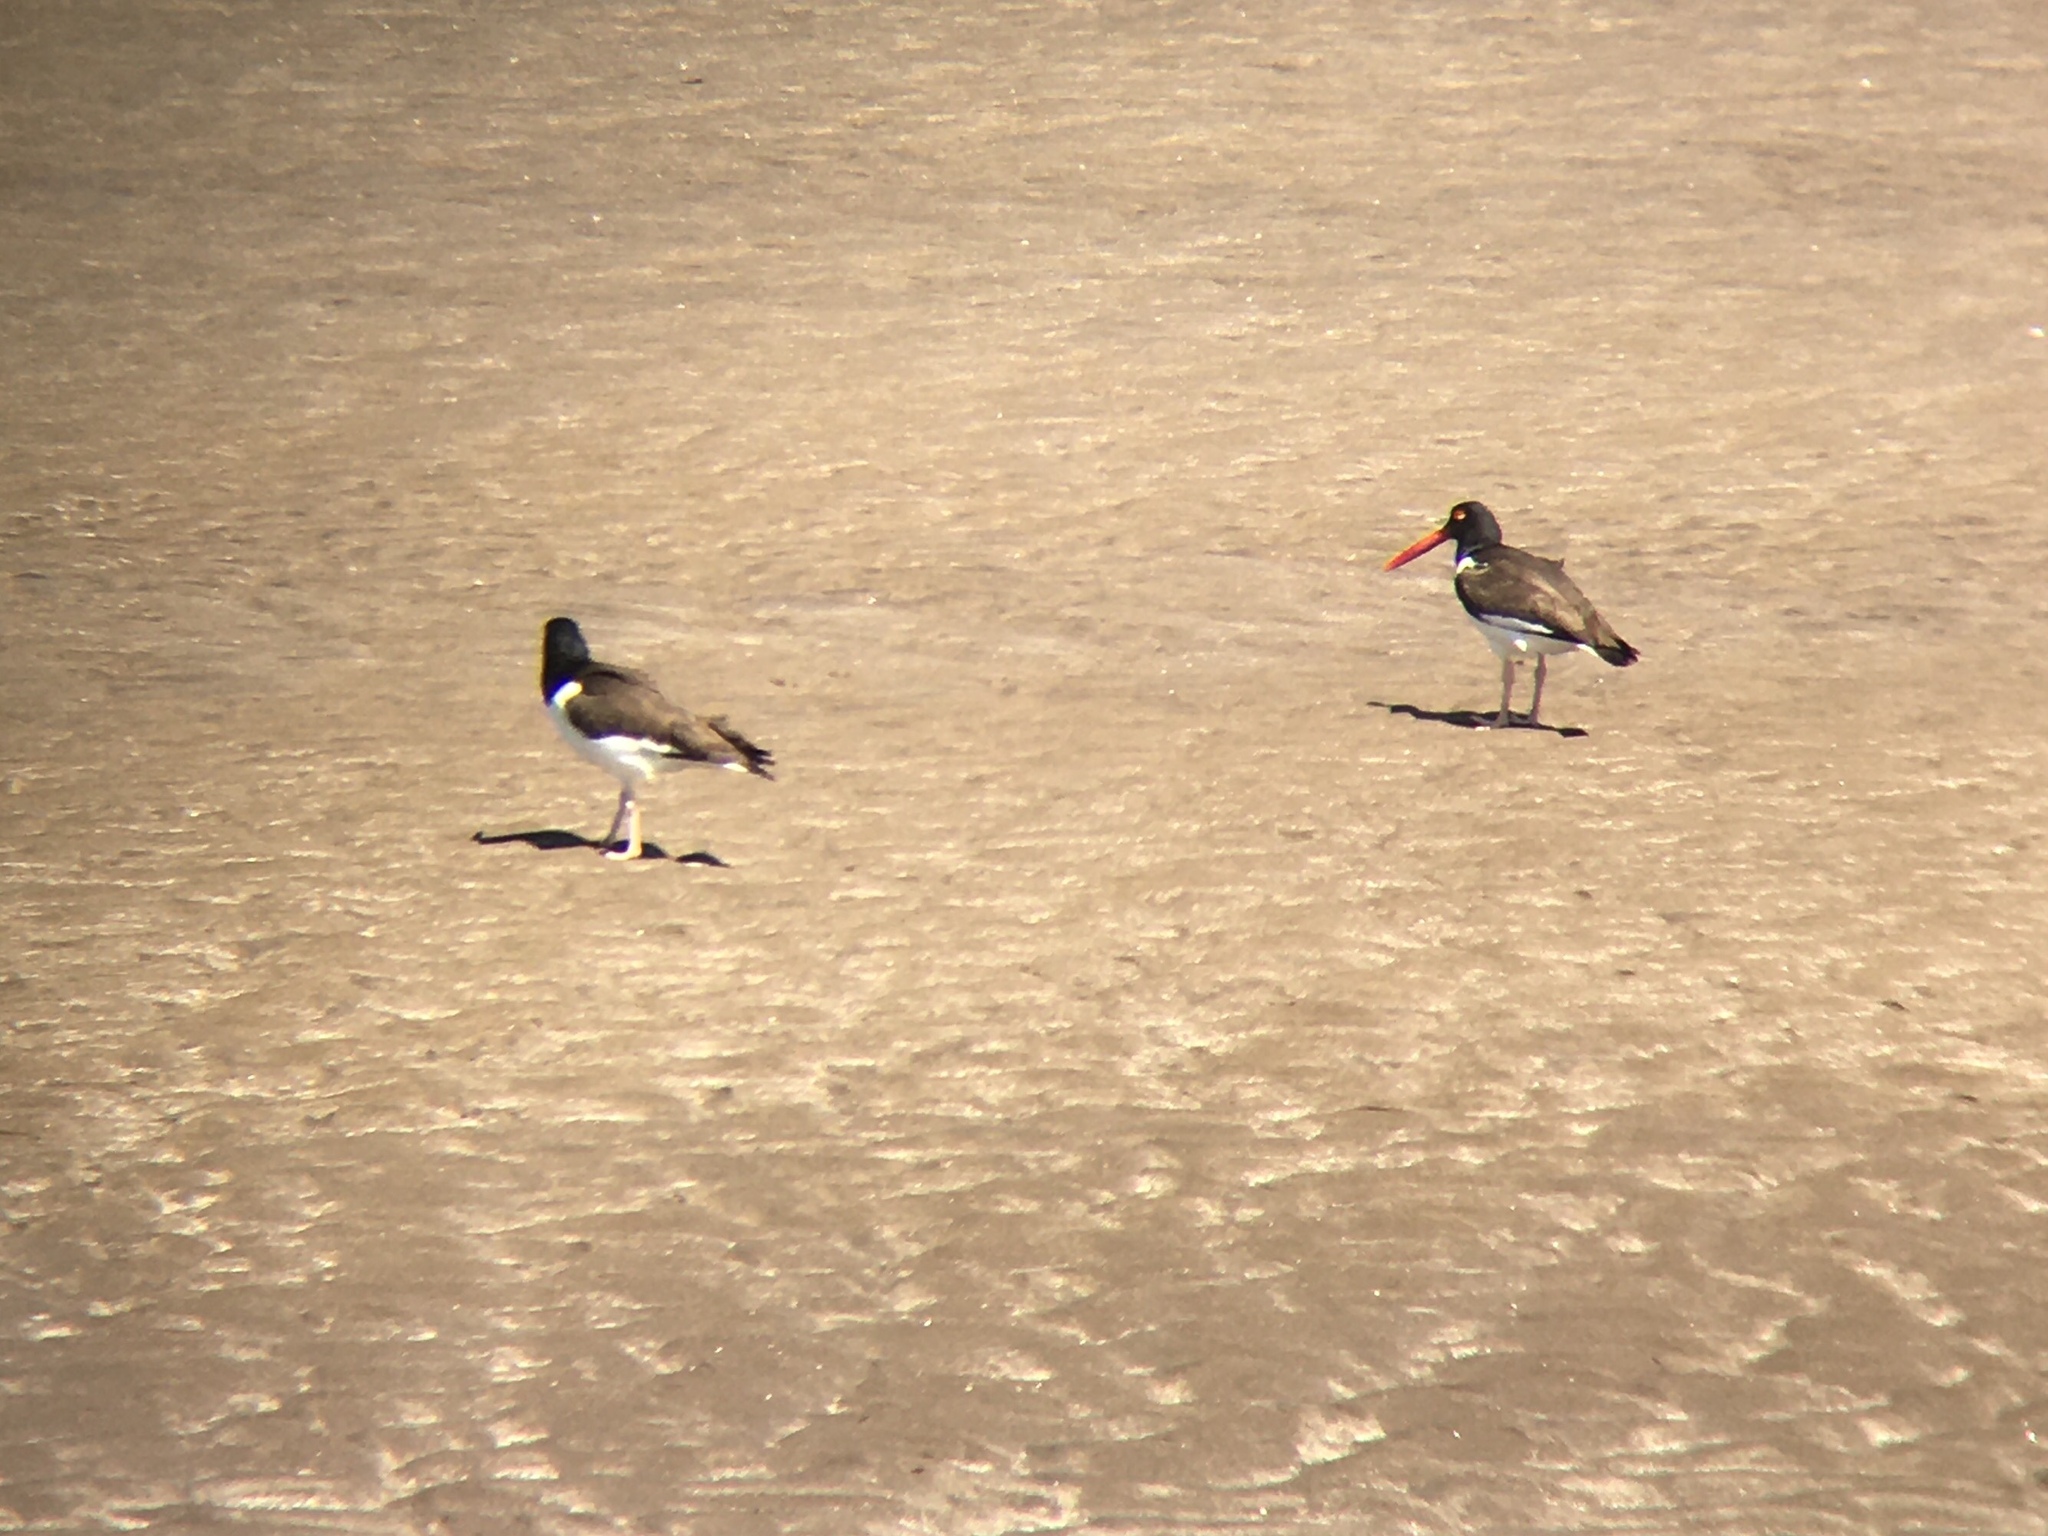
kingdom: Animalia
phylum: Chordata
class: Aves
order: Charadriiformes
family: Haematopodidae
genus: Haematopus
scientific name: Haematopus palliatus
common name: American oystercatcher
